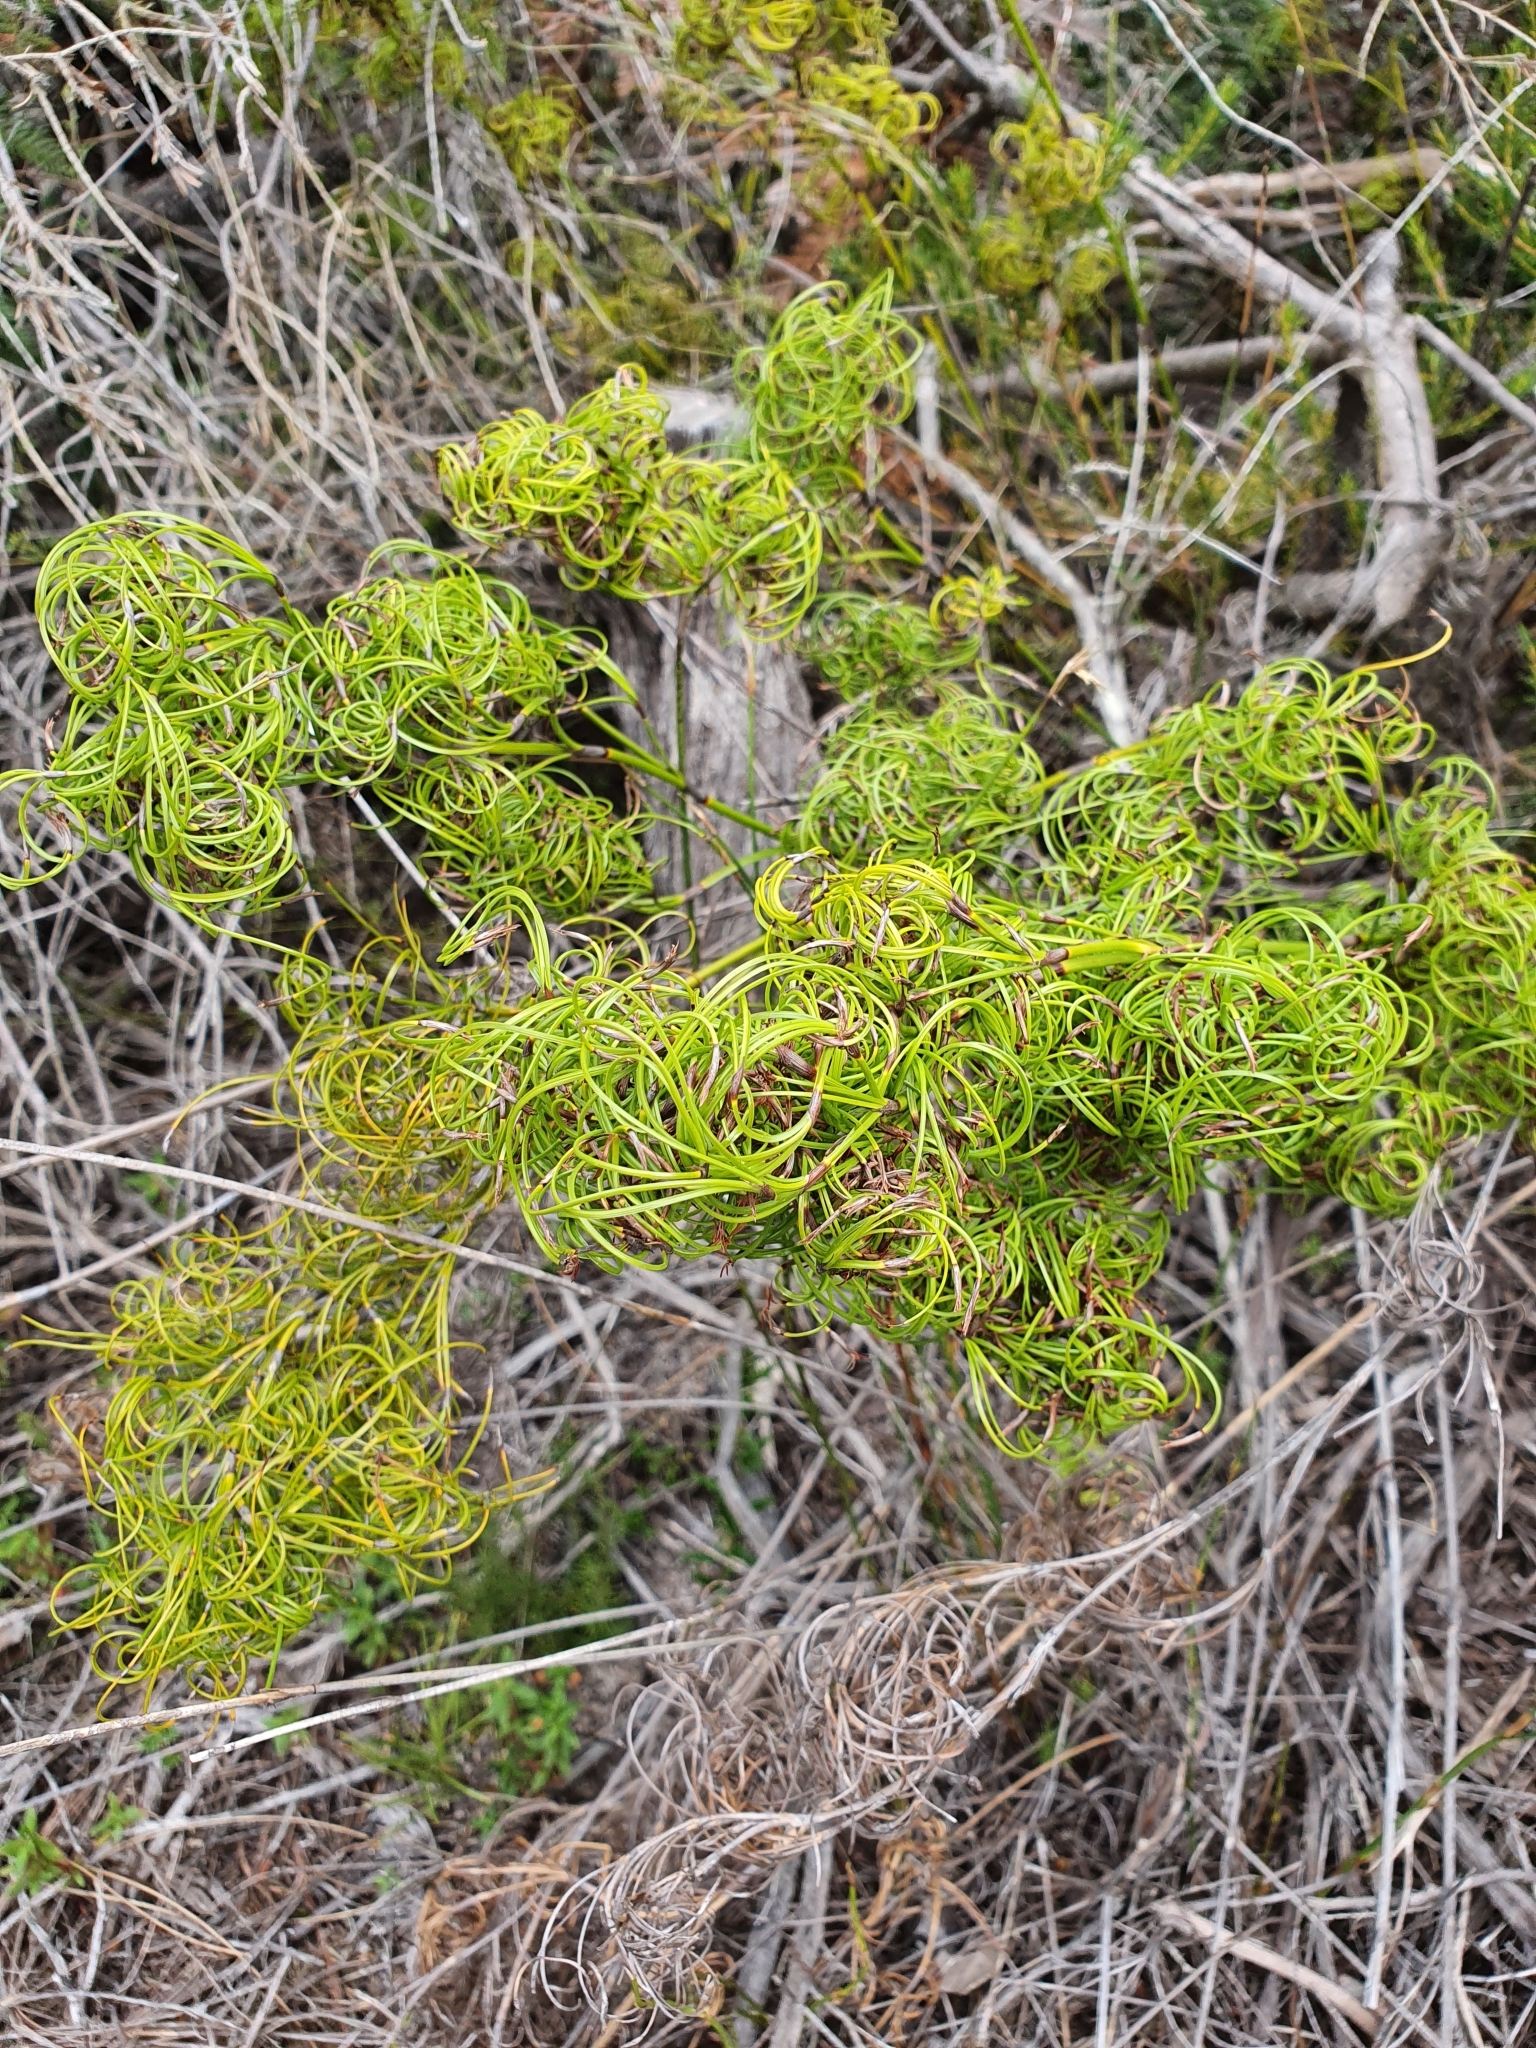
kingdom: Plantae
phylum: Tracheophyta
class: Liliopsida
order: Poales
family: Cyperaceae
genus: Caustis
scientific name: Caustis flexuosa
